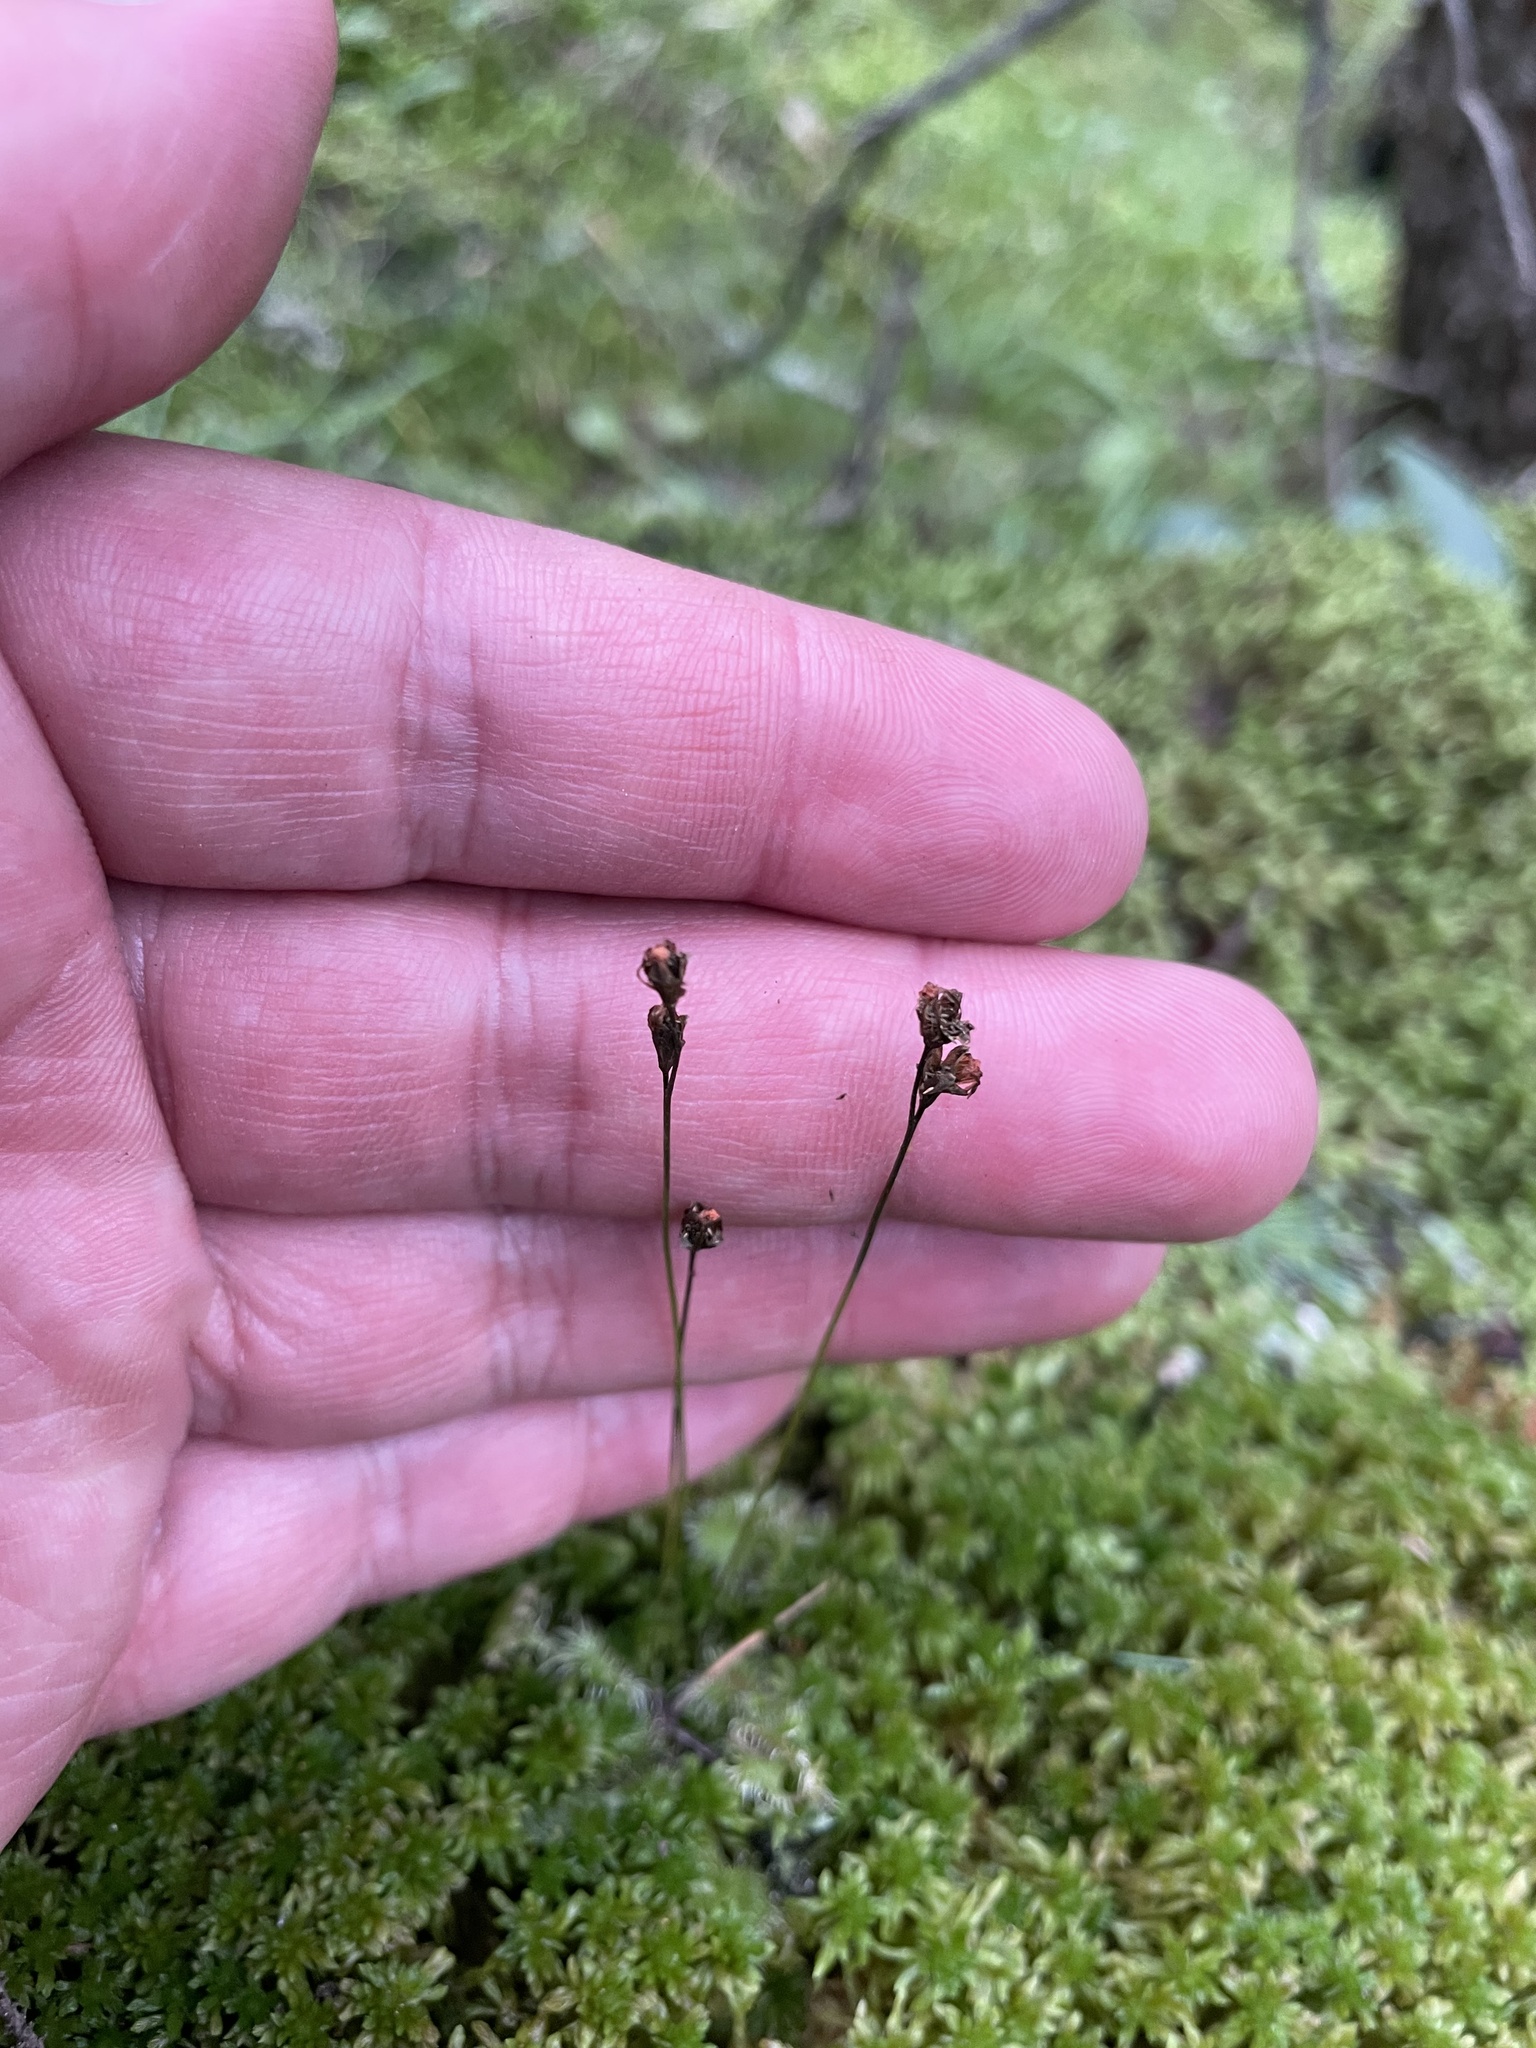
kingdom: Plantae
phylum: Tracheophyta
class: Magnoliopsida
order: Caryophyllales
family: Droseraceae
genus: Drosera
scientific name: Drosera rotundifolia
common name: Round-leaved sundew
